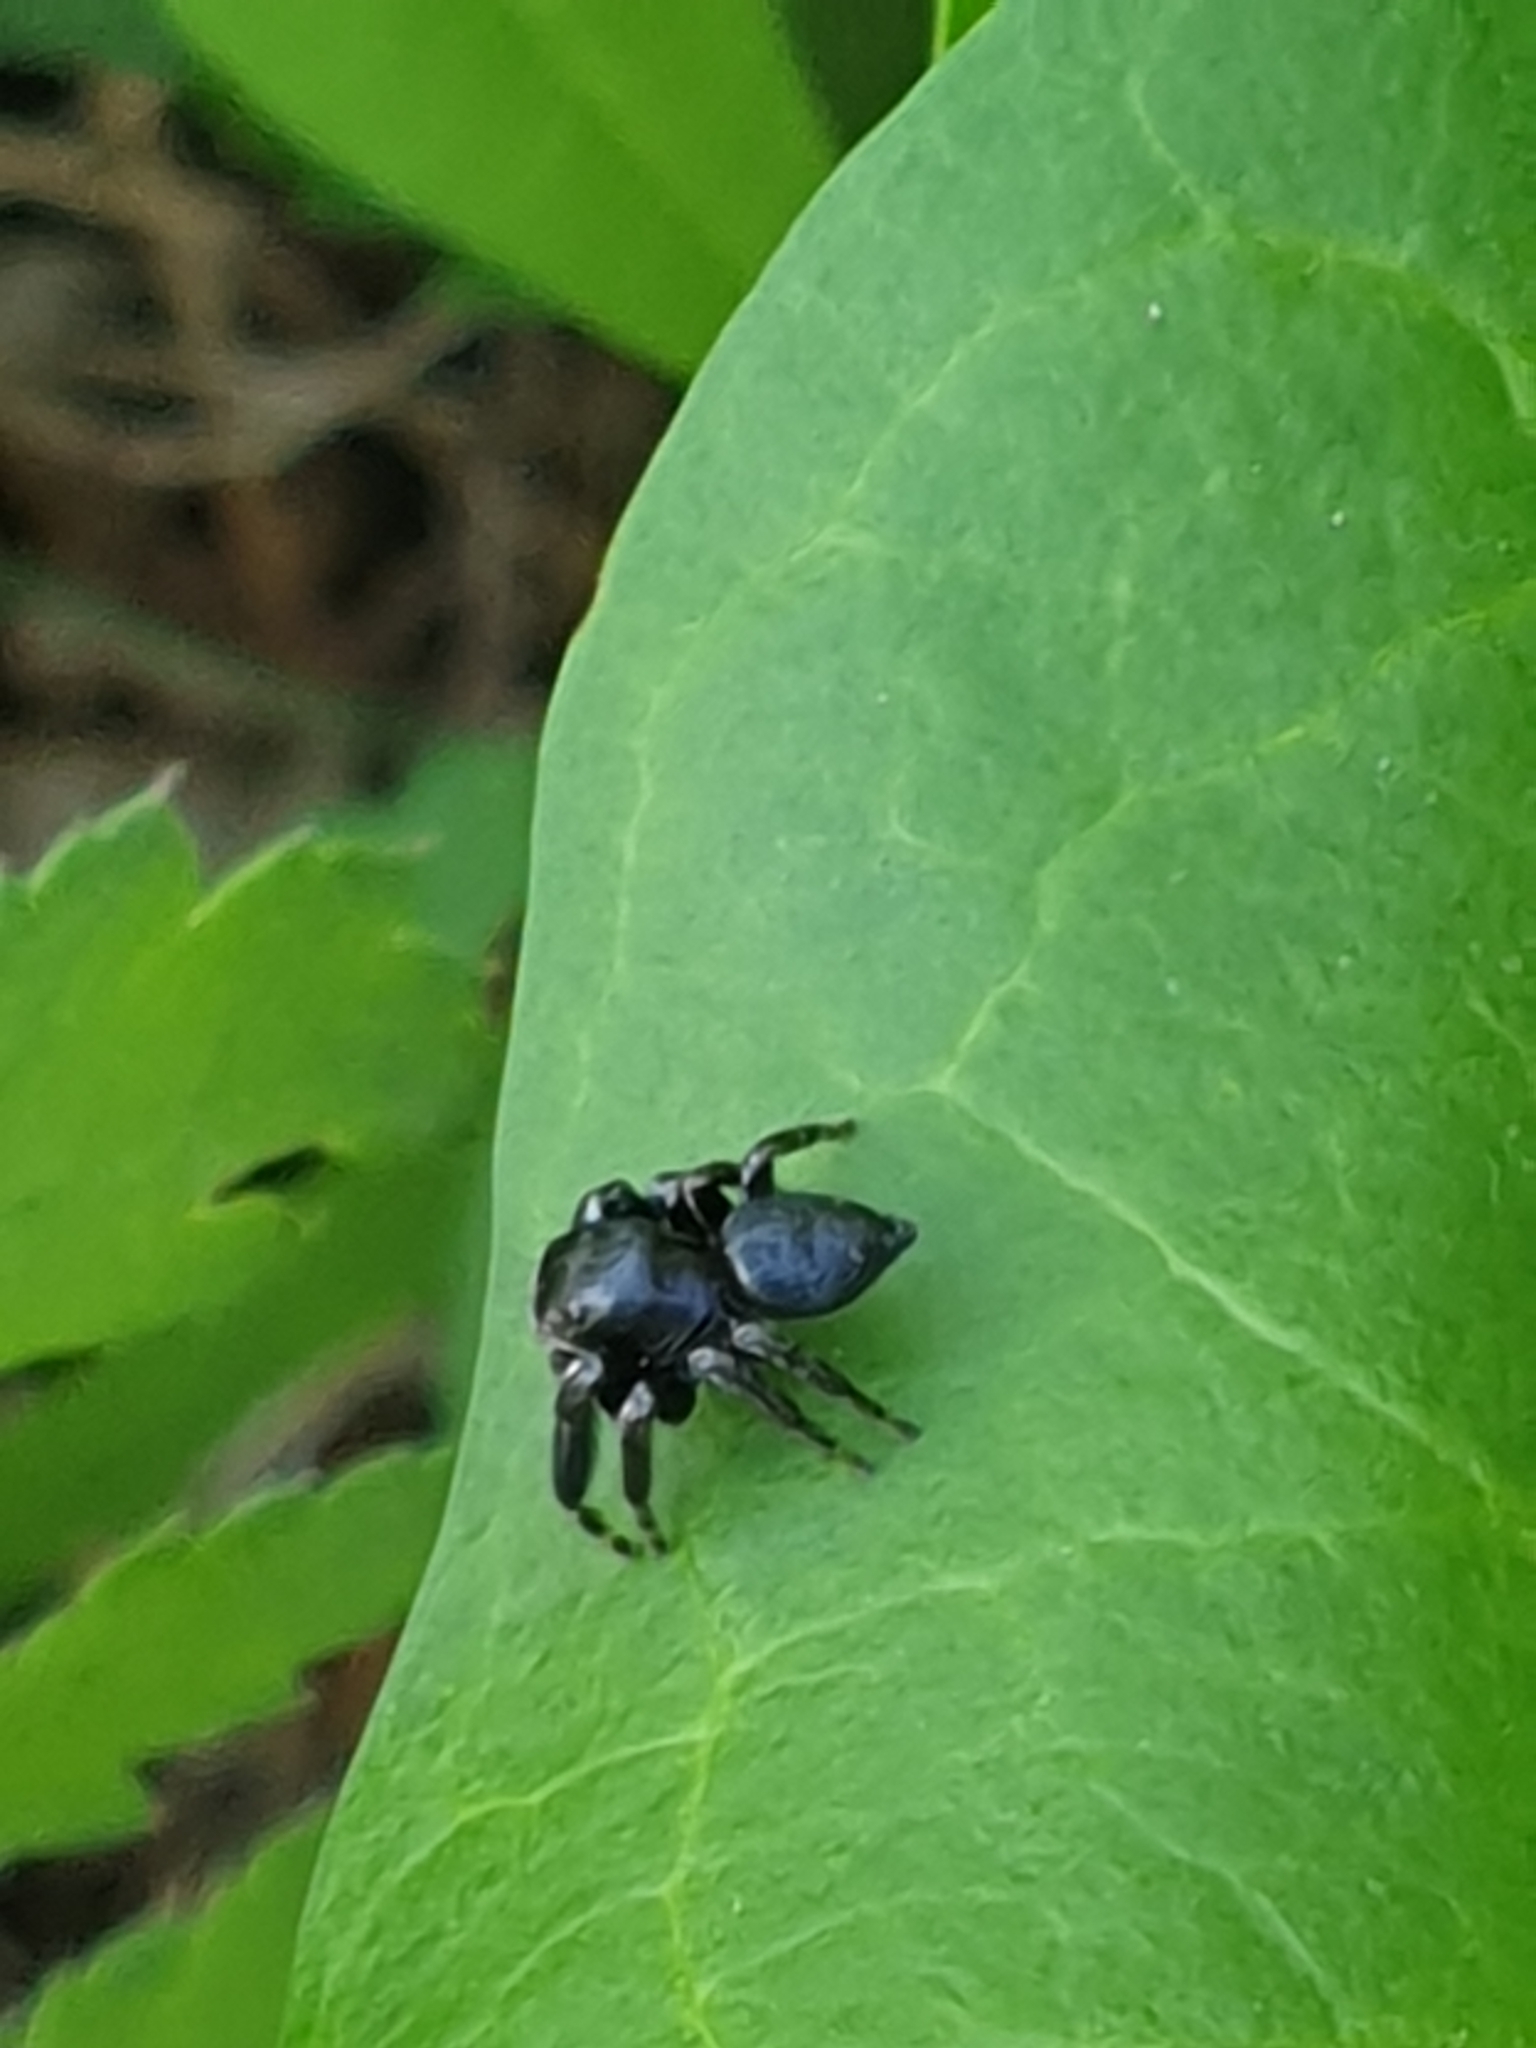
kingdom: Animalia
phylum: Arthropoda
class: Arachnida
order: Araneae
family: Salticidae
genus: Evarcha
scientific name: Evarcha arcuata
